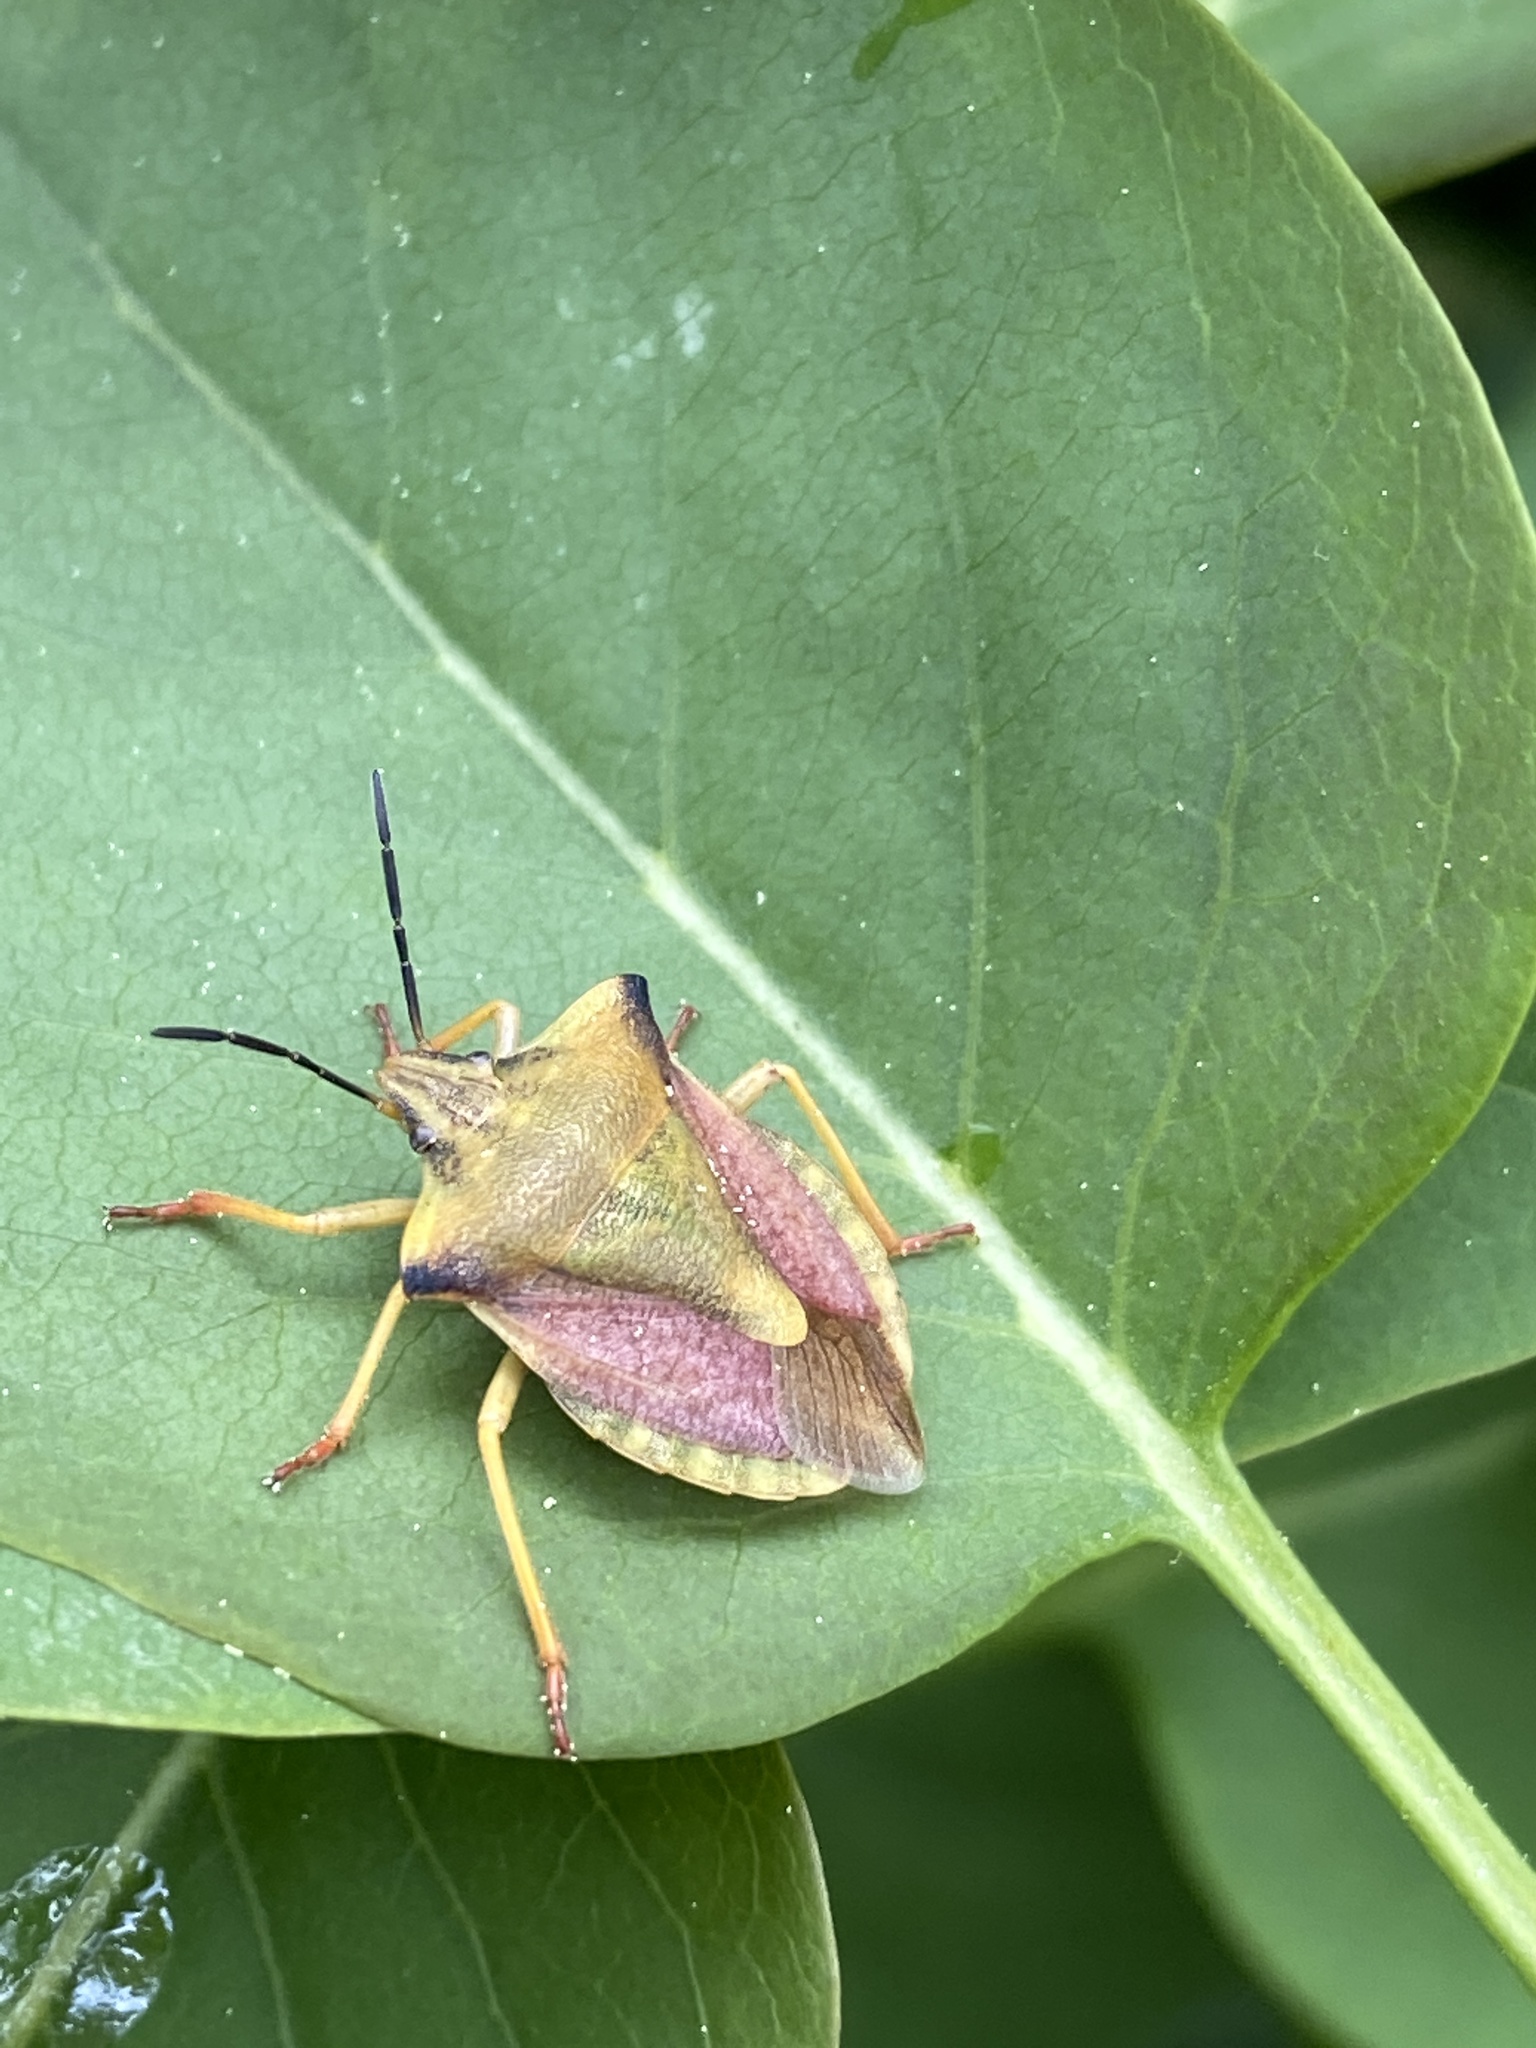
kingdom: Animalia
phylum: Arthropoda
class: Insecta
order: Hemiptera
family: Pentatomidae
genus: Carpocoris
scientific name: Carpocoris fuscispinus
